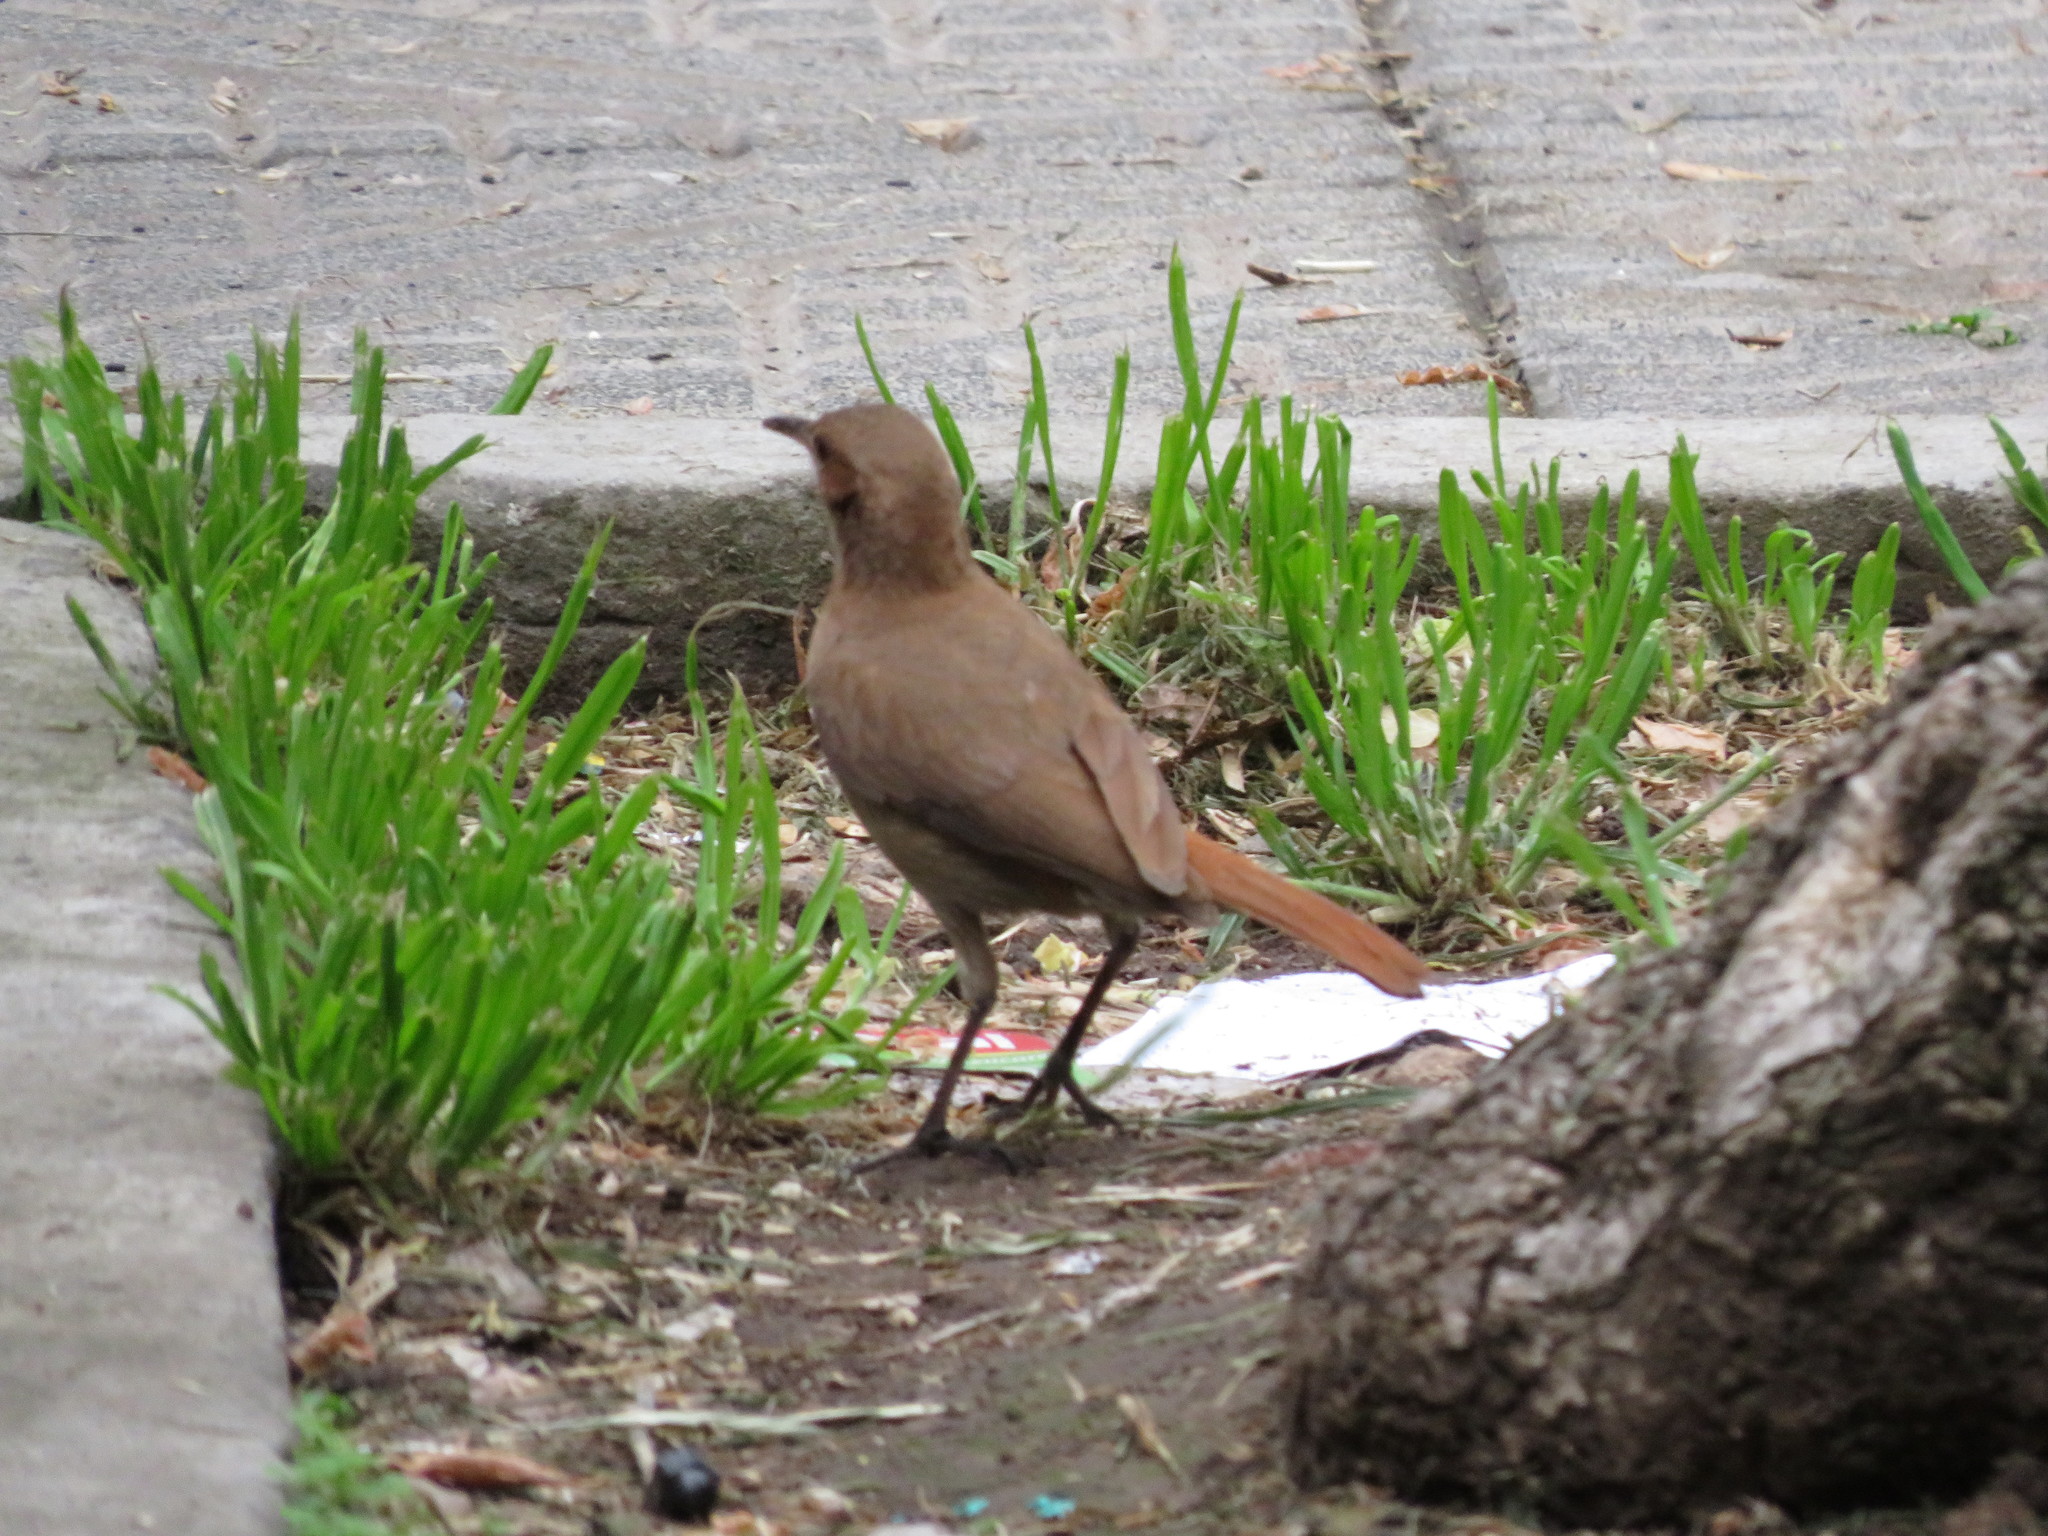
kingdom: Animalia
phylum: Chordata
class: Aves
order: Passeriformes
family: Furnariidae
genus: Furnarius
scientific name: Furnarius rufus
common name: Rufous hornero
